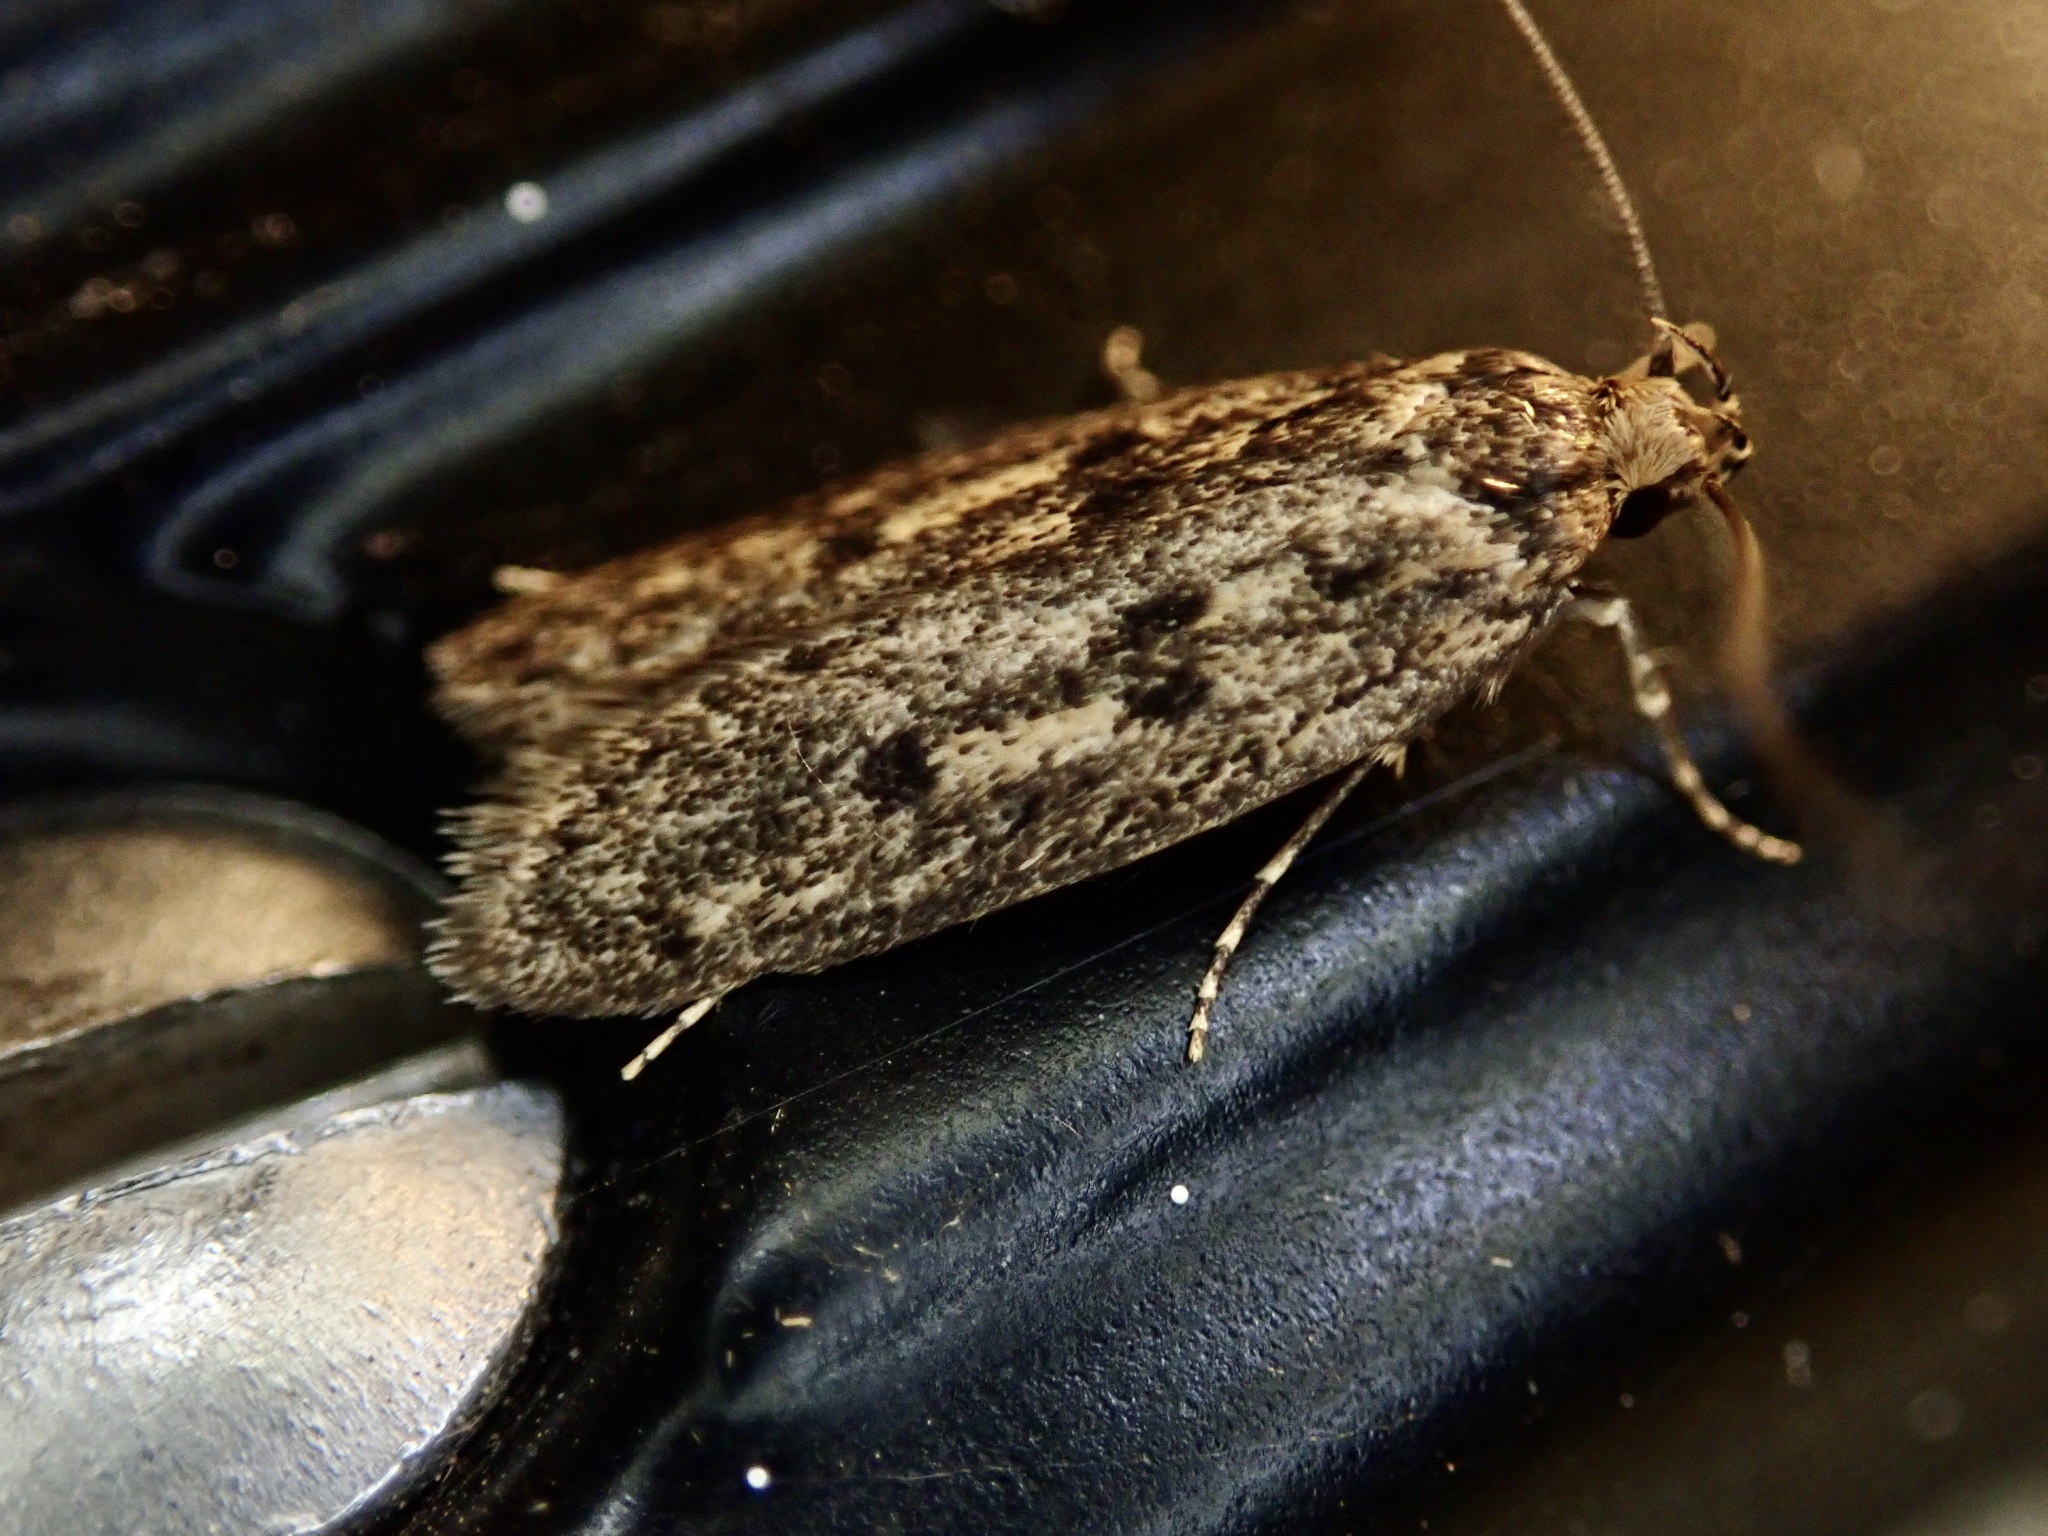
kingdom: Animalia
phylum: Arthropoda
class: Insecta
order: Lepidoptera
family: Oecophoridae
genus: Hofmannophila
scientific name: Hofmannophila pseudospretella
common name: Brown house moth
